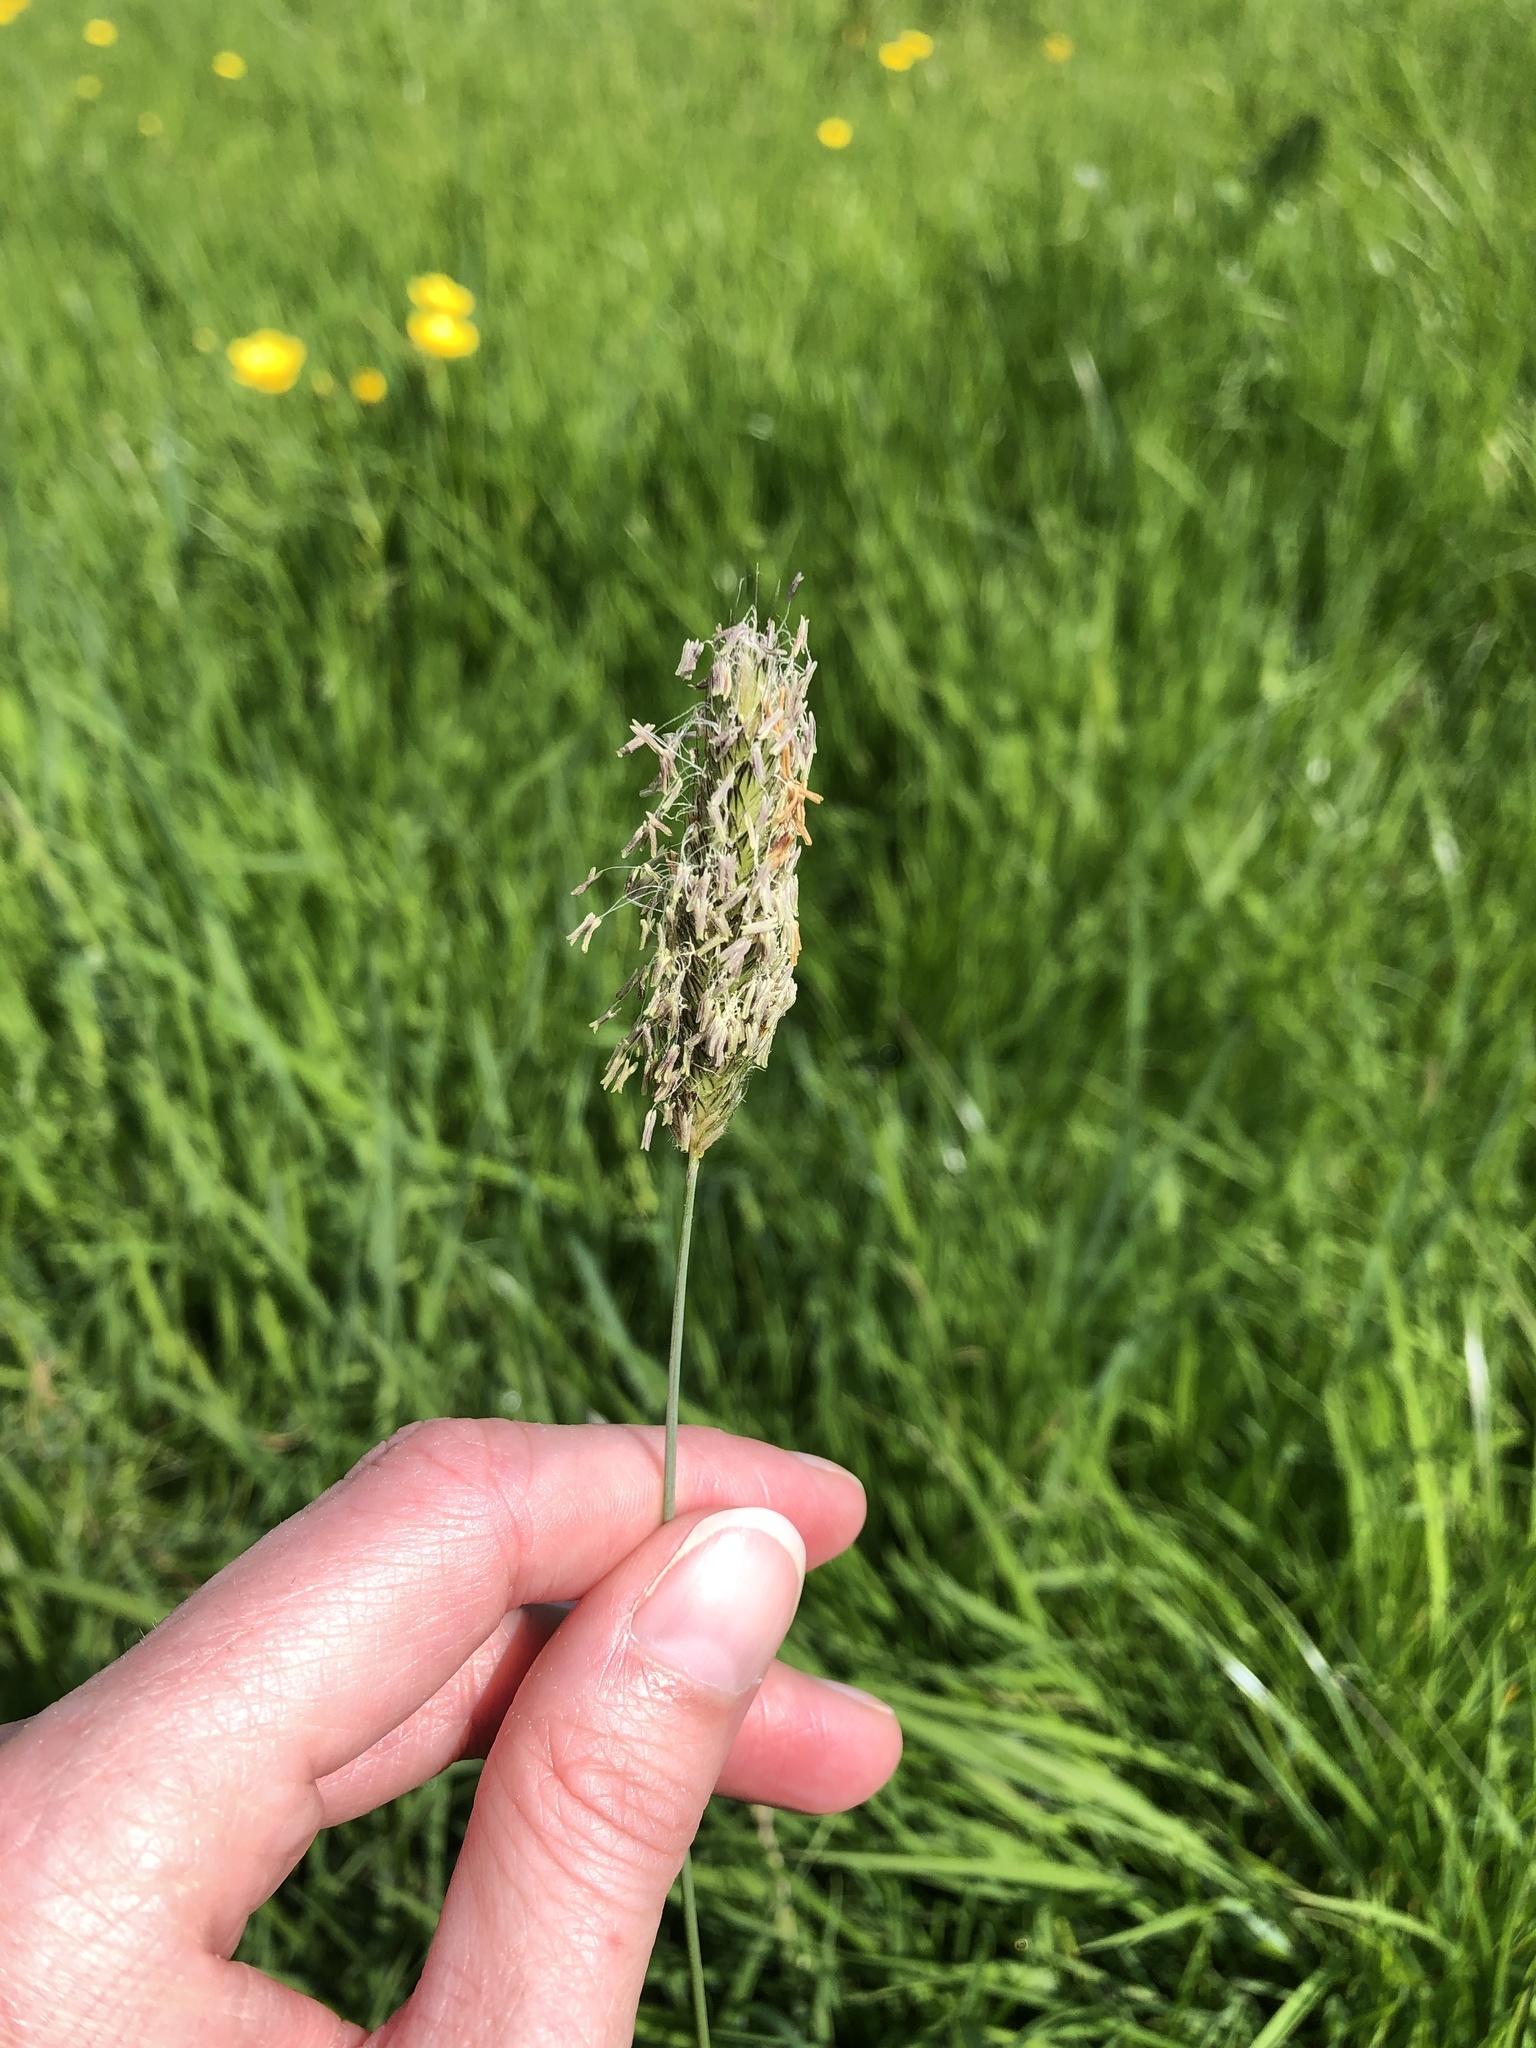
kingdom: Plantae
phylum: Tracheophyta
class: Liliopsida
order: Poales
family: Poaceae
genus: Alopecurus
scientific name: Alopecurus pratensis
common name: Meadow foxtail
